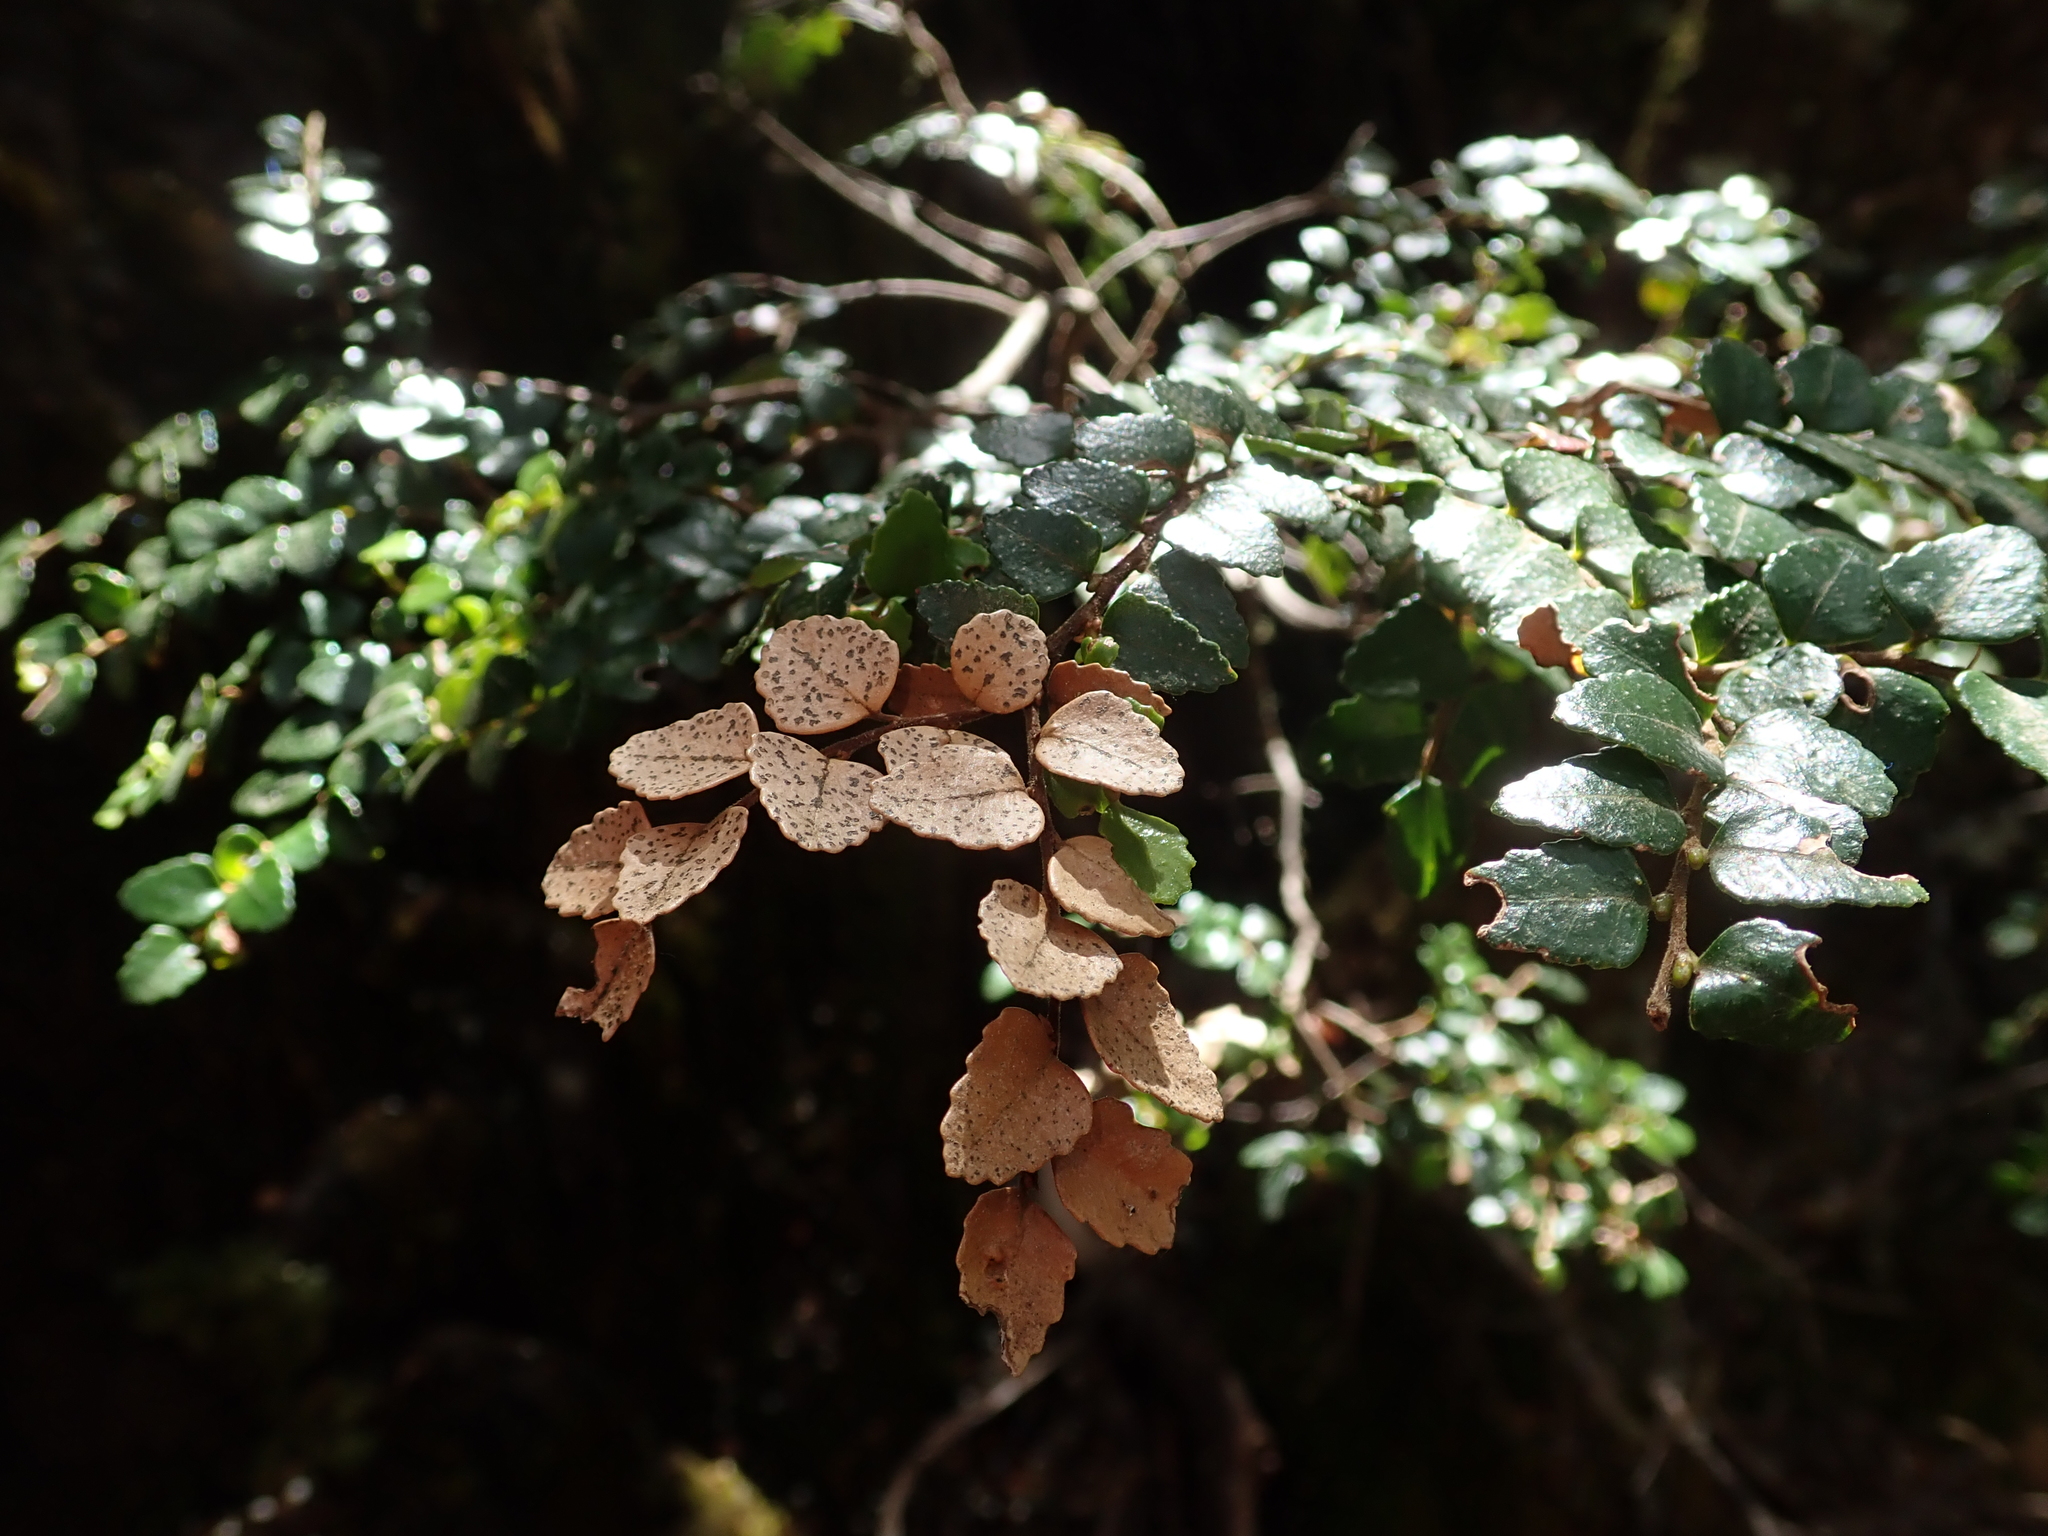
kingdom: Plantae
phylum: Tracheophyta
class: Magnoliopsida
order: Fagales
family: Nothofagaceae
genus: Nothofagus
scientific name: Nothofagus cunninghamii
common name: Myrtle beech
